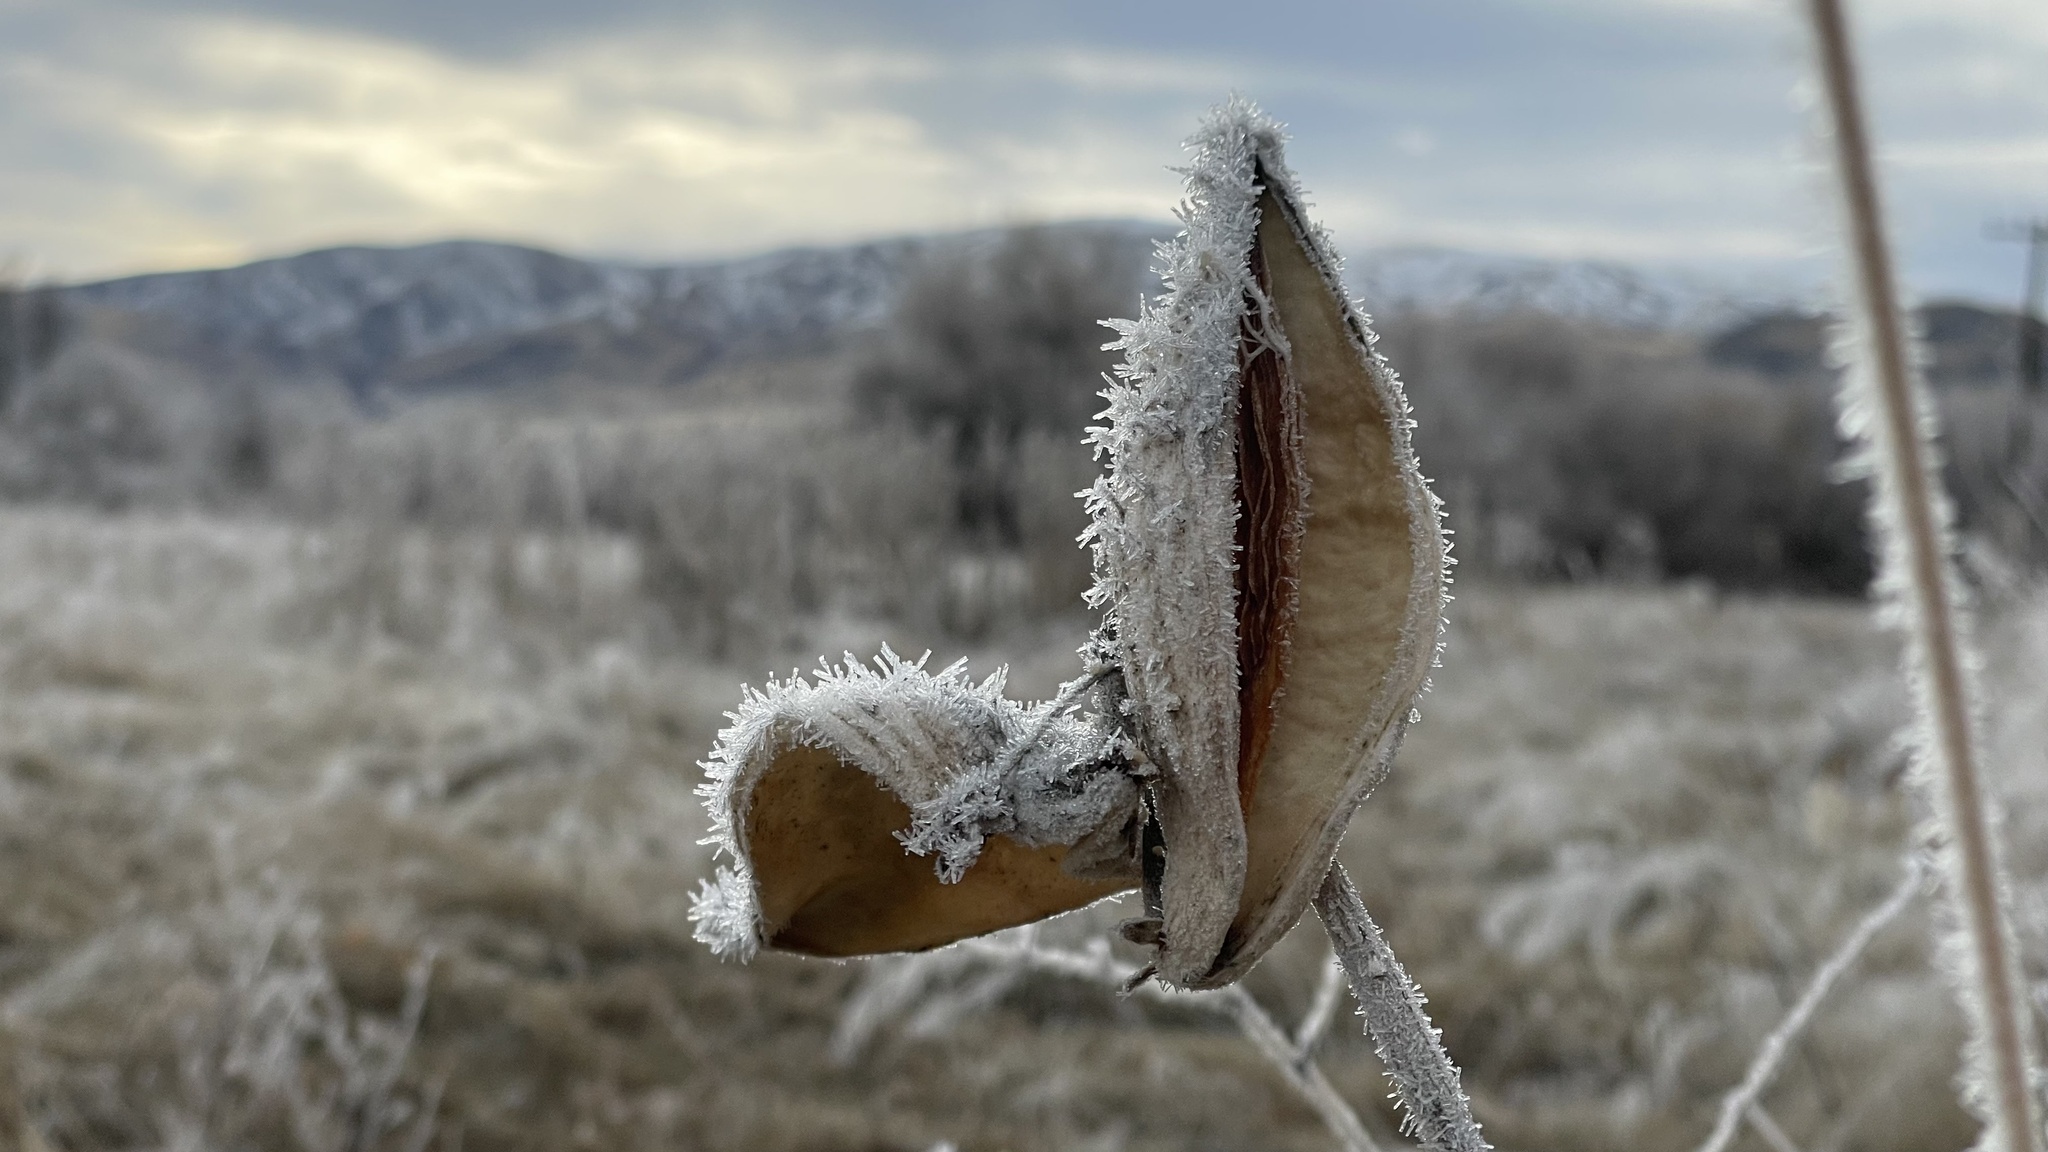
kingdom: Plantae
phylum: Tracheophyta
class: Magnoliopsida
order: Gentianales
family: Apocynaceae
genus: Asclepias
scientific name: Asclepias speciosa
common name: Showy milkweed
